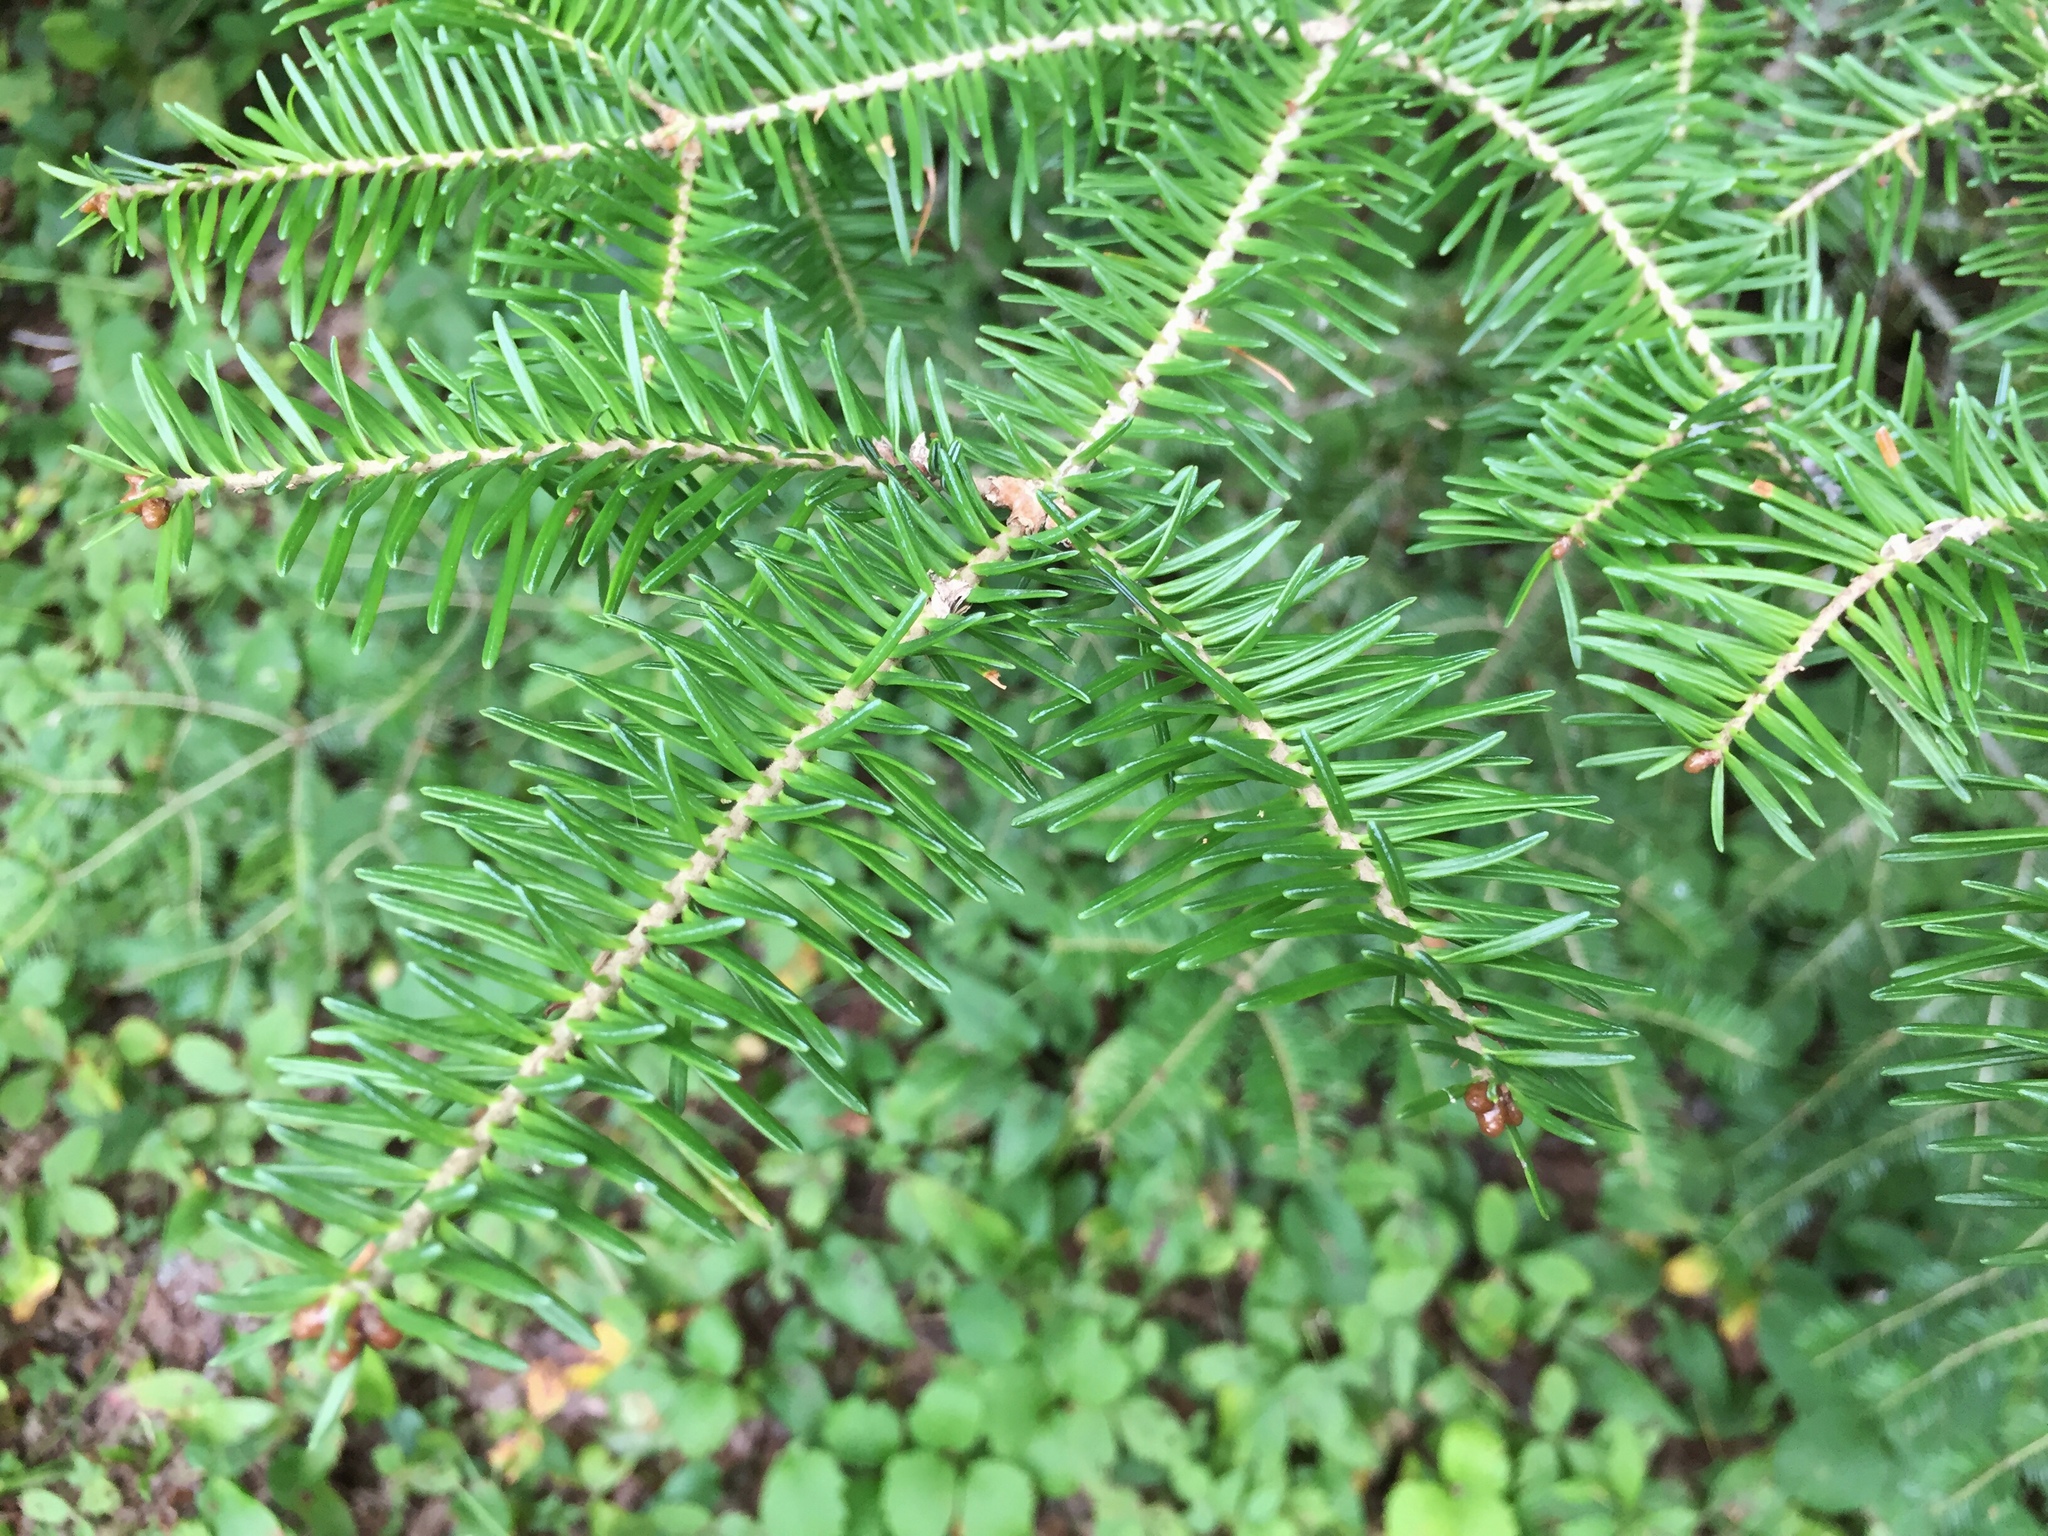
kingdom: Plantae
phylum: Tracheophyta
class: Pinopsida
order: Pinales
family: Pinaceae
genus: Abies
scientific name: Abies balsamea
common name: Balsam fir
